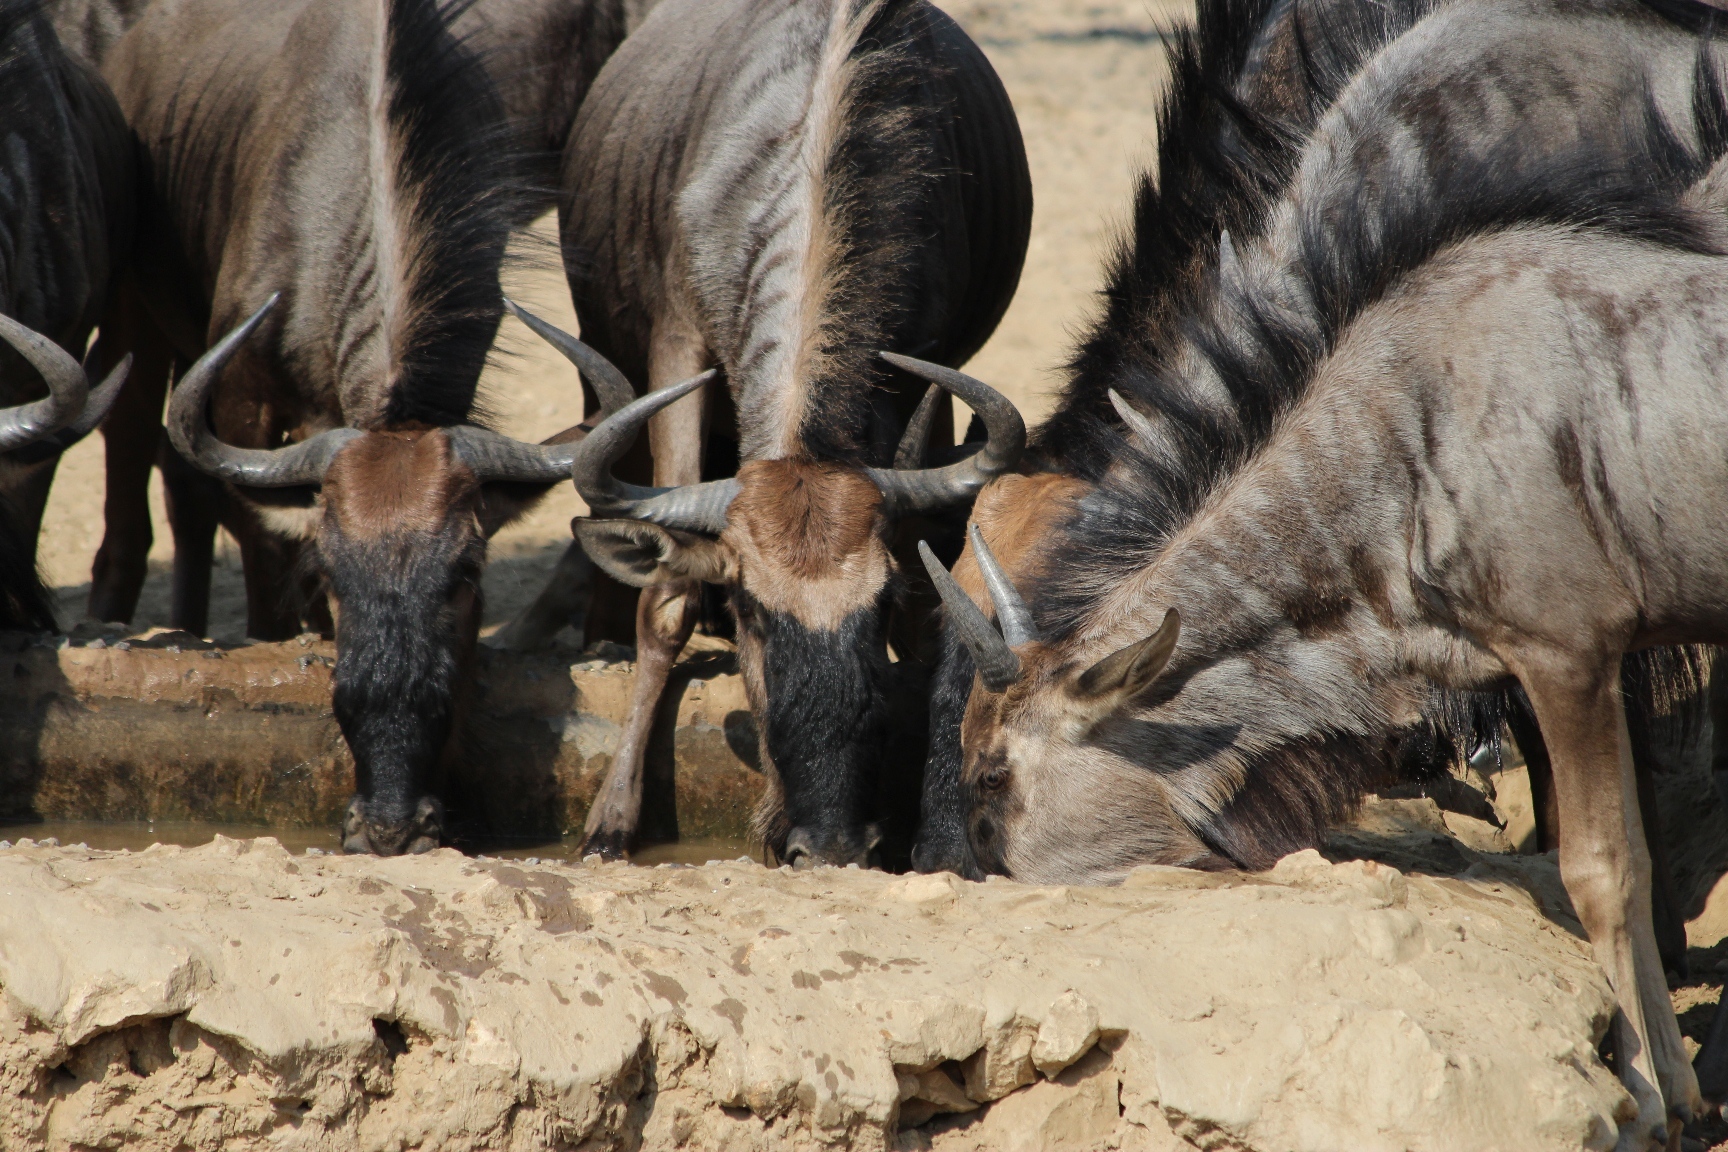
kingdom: Animalia
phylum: Chordata
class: Mammalia
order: Artiodactyla
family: Bovidae
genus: Connochaetes
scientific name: Connochaetes taurinus
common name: Blue wildebeest
